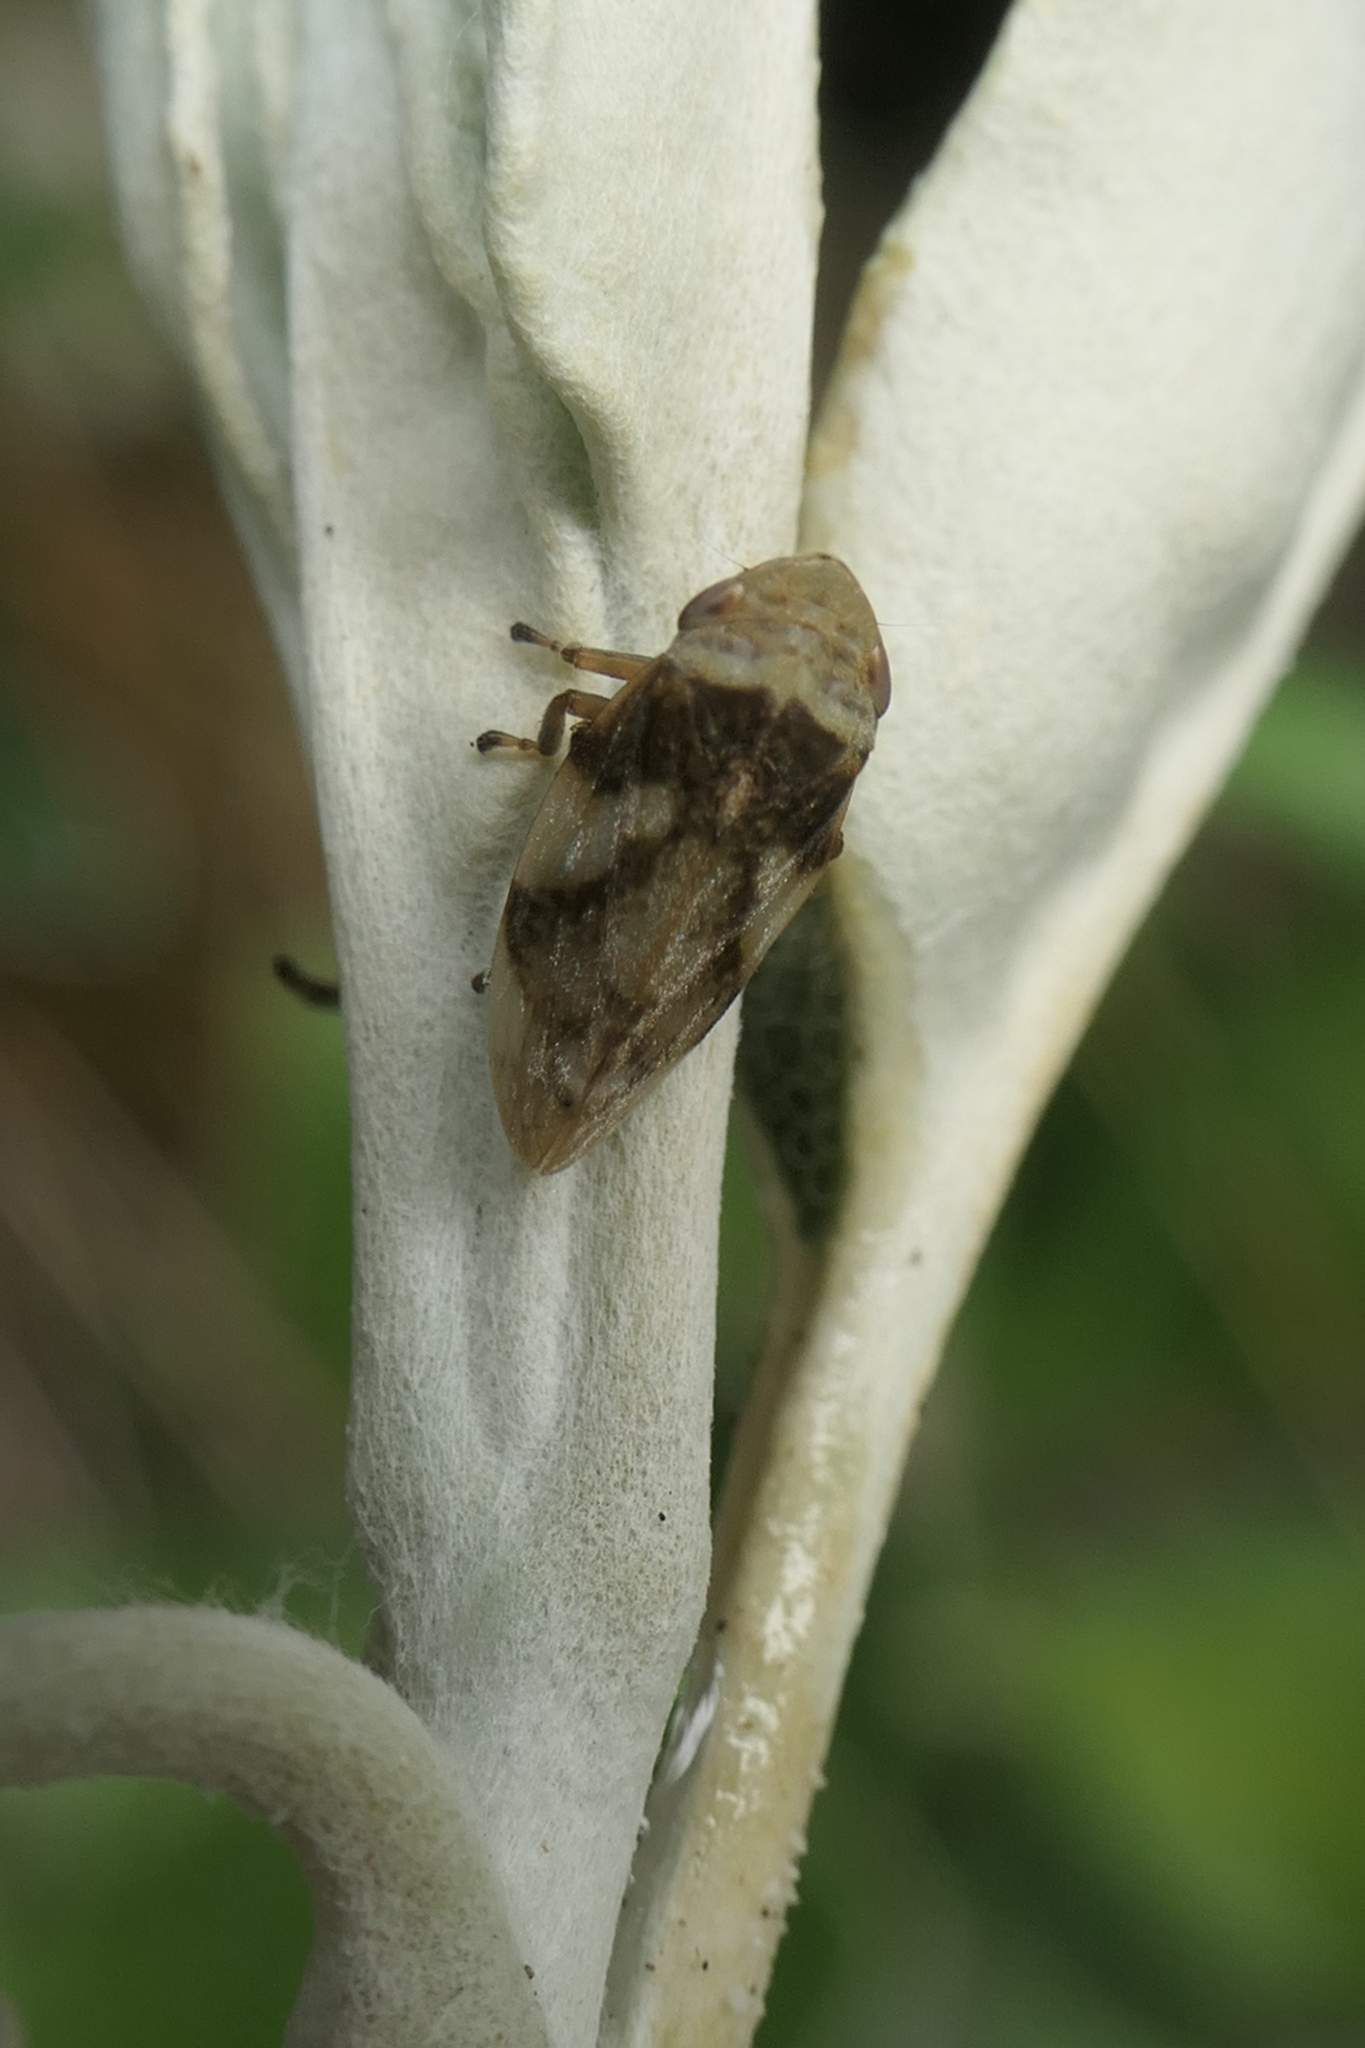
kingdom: Animalia
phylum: Arthropoda
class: Insecta
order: Hemiptera
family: Aphrophoridae
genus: Philaenus
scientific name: Philaenus spumarius
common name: Meadow spittlebug
